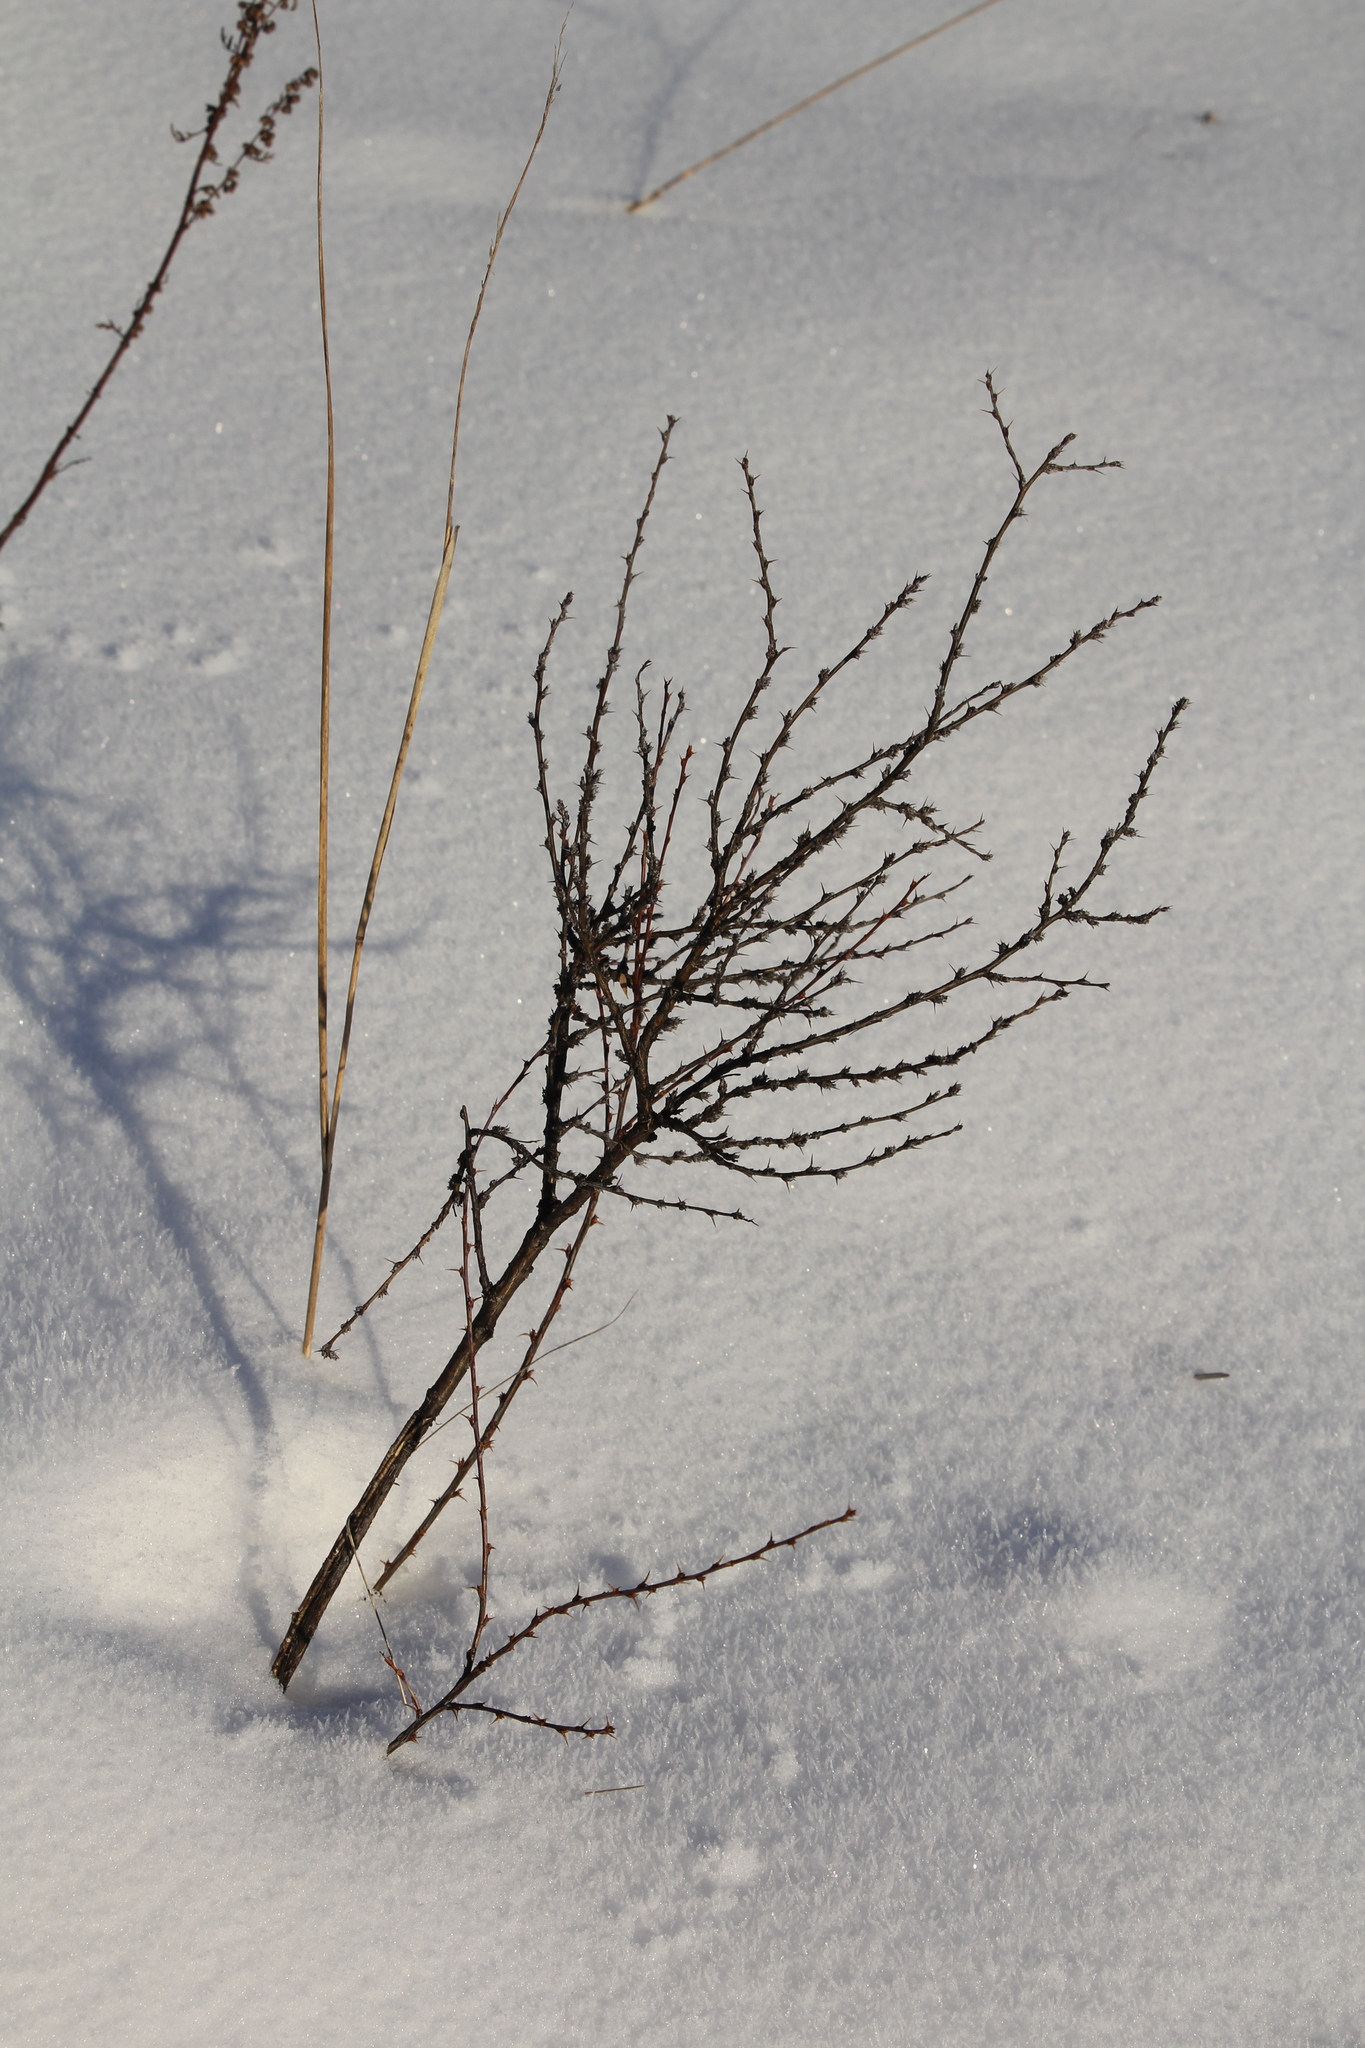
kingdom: Plantae
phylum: Tracheophyta
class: Magnoliopsida
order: Fabales
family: Fabaceae
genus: Caragana
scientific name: Caragana pygmaea
